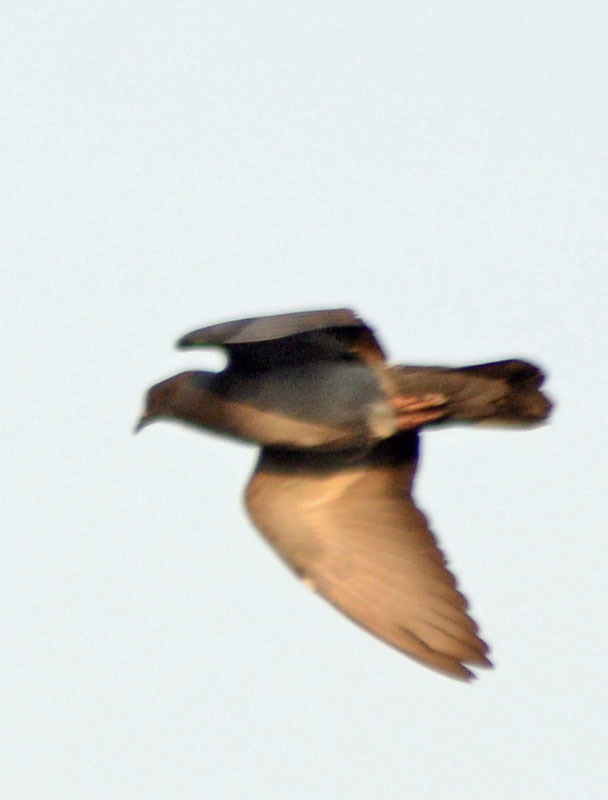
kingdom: Animalia
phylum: Chordata
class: Aves
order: Columbiformes
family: Columbidae
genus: Columba
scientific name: Columba livia
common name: Rock pigeon
